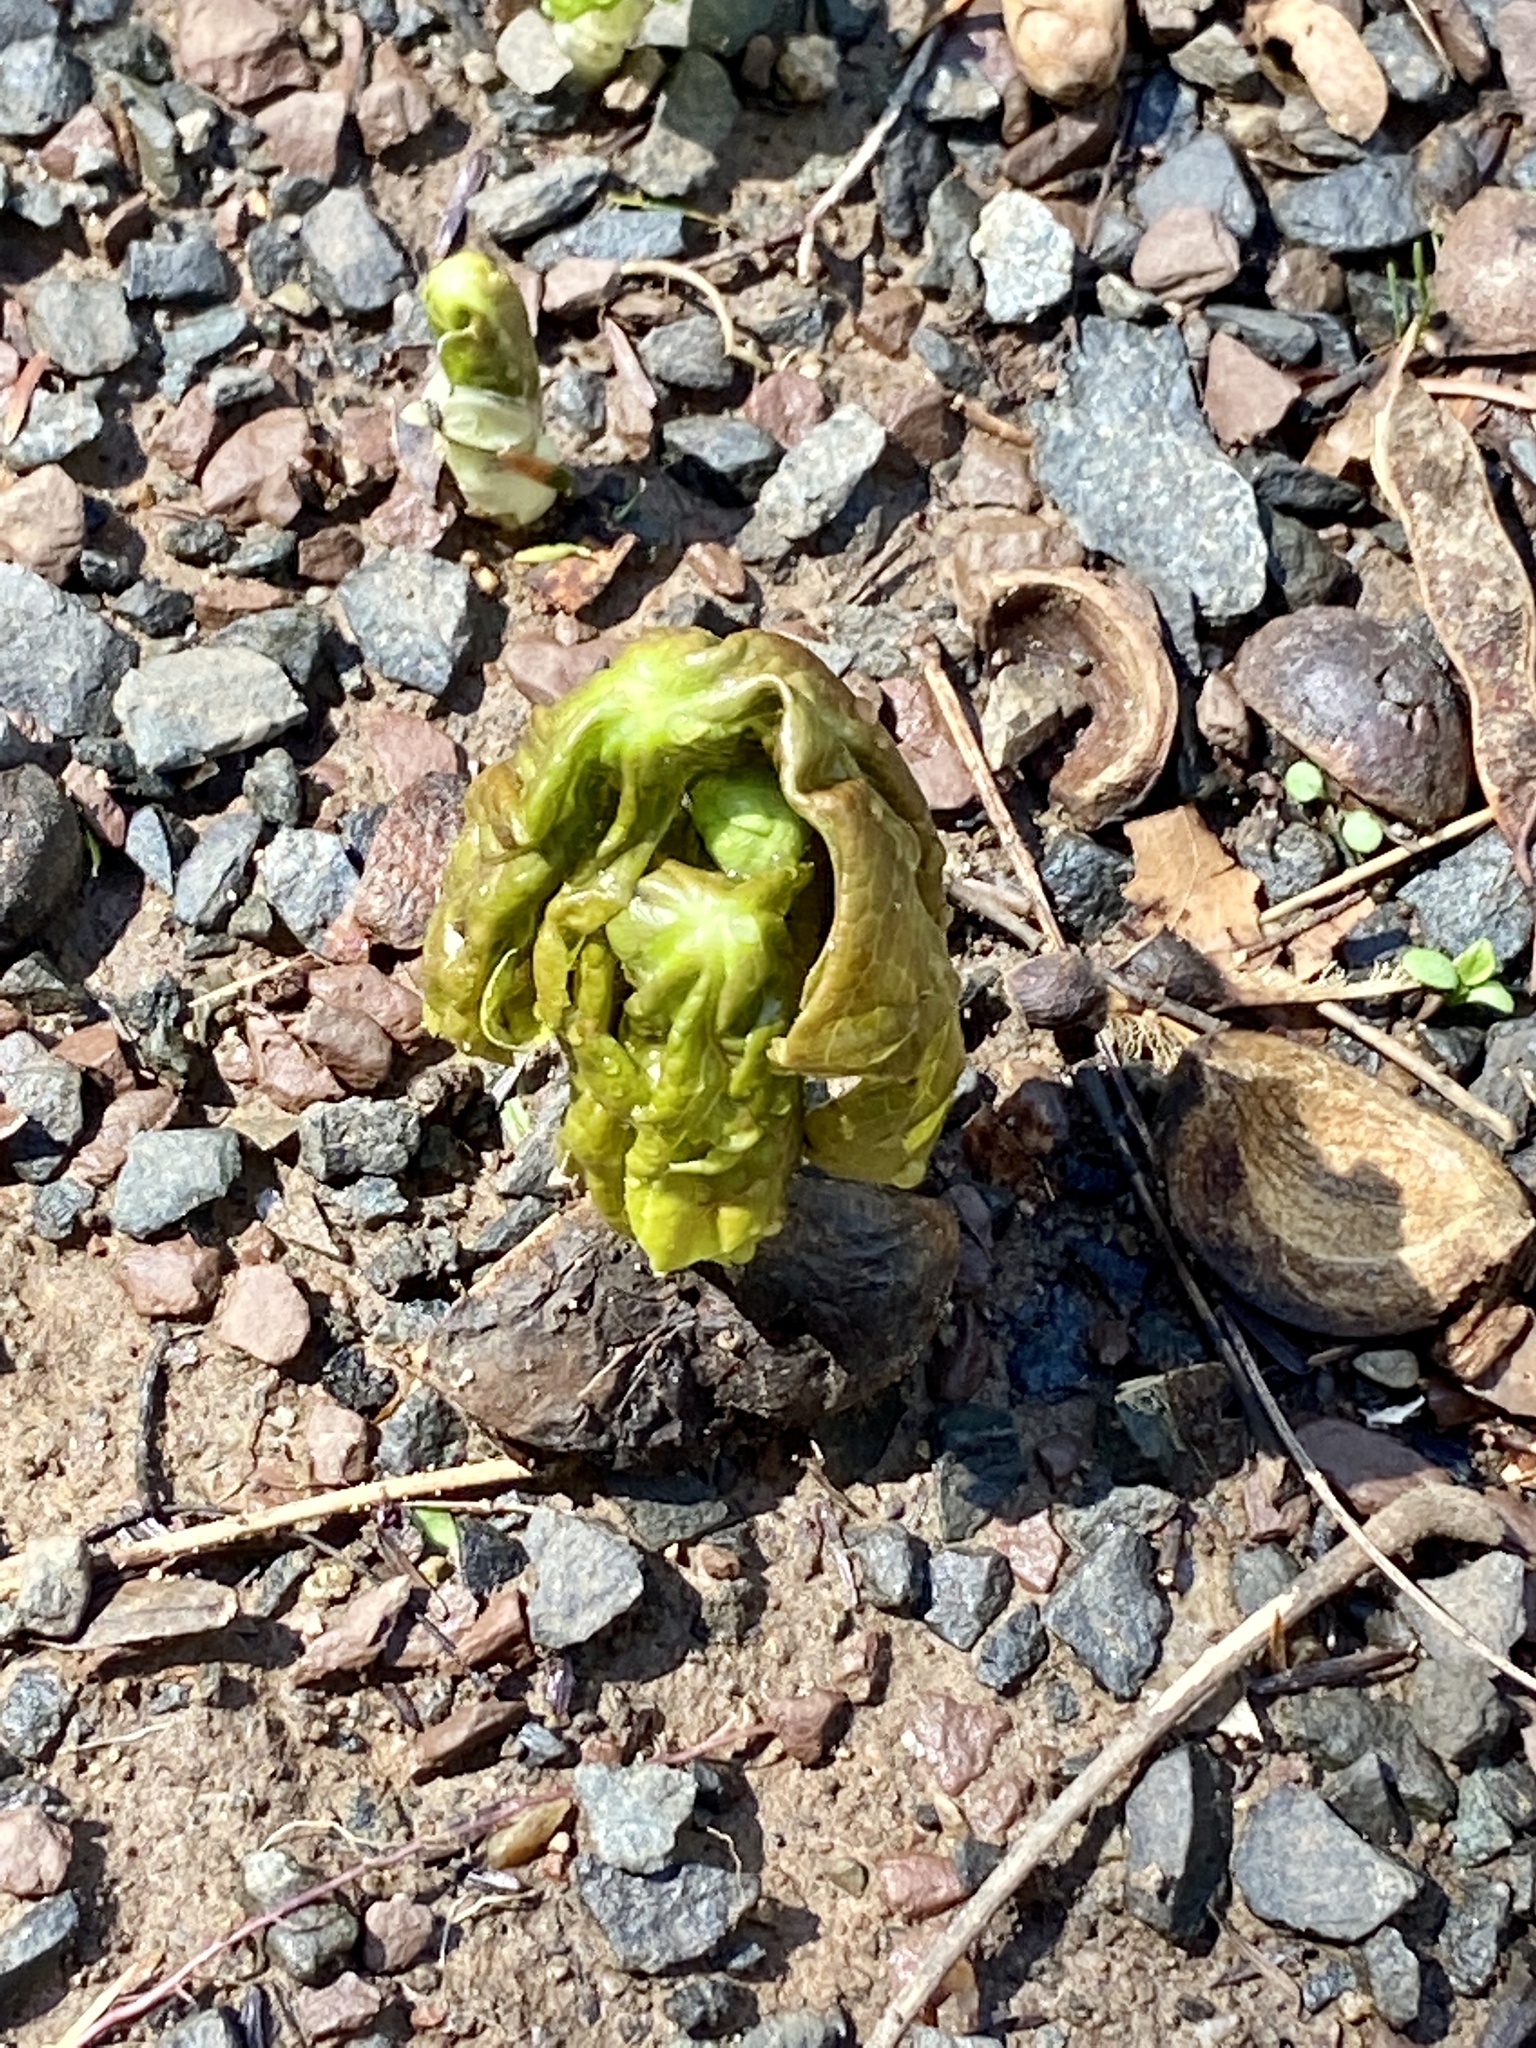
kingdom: Plantae
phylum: Tracheophyta
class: Magnoliopsida
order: Ranunculales
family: Berberidaceae
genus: Podophyllum
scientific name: Podophyllum peltatum
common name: Wild mandrake
